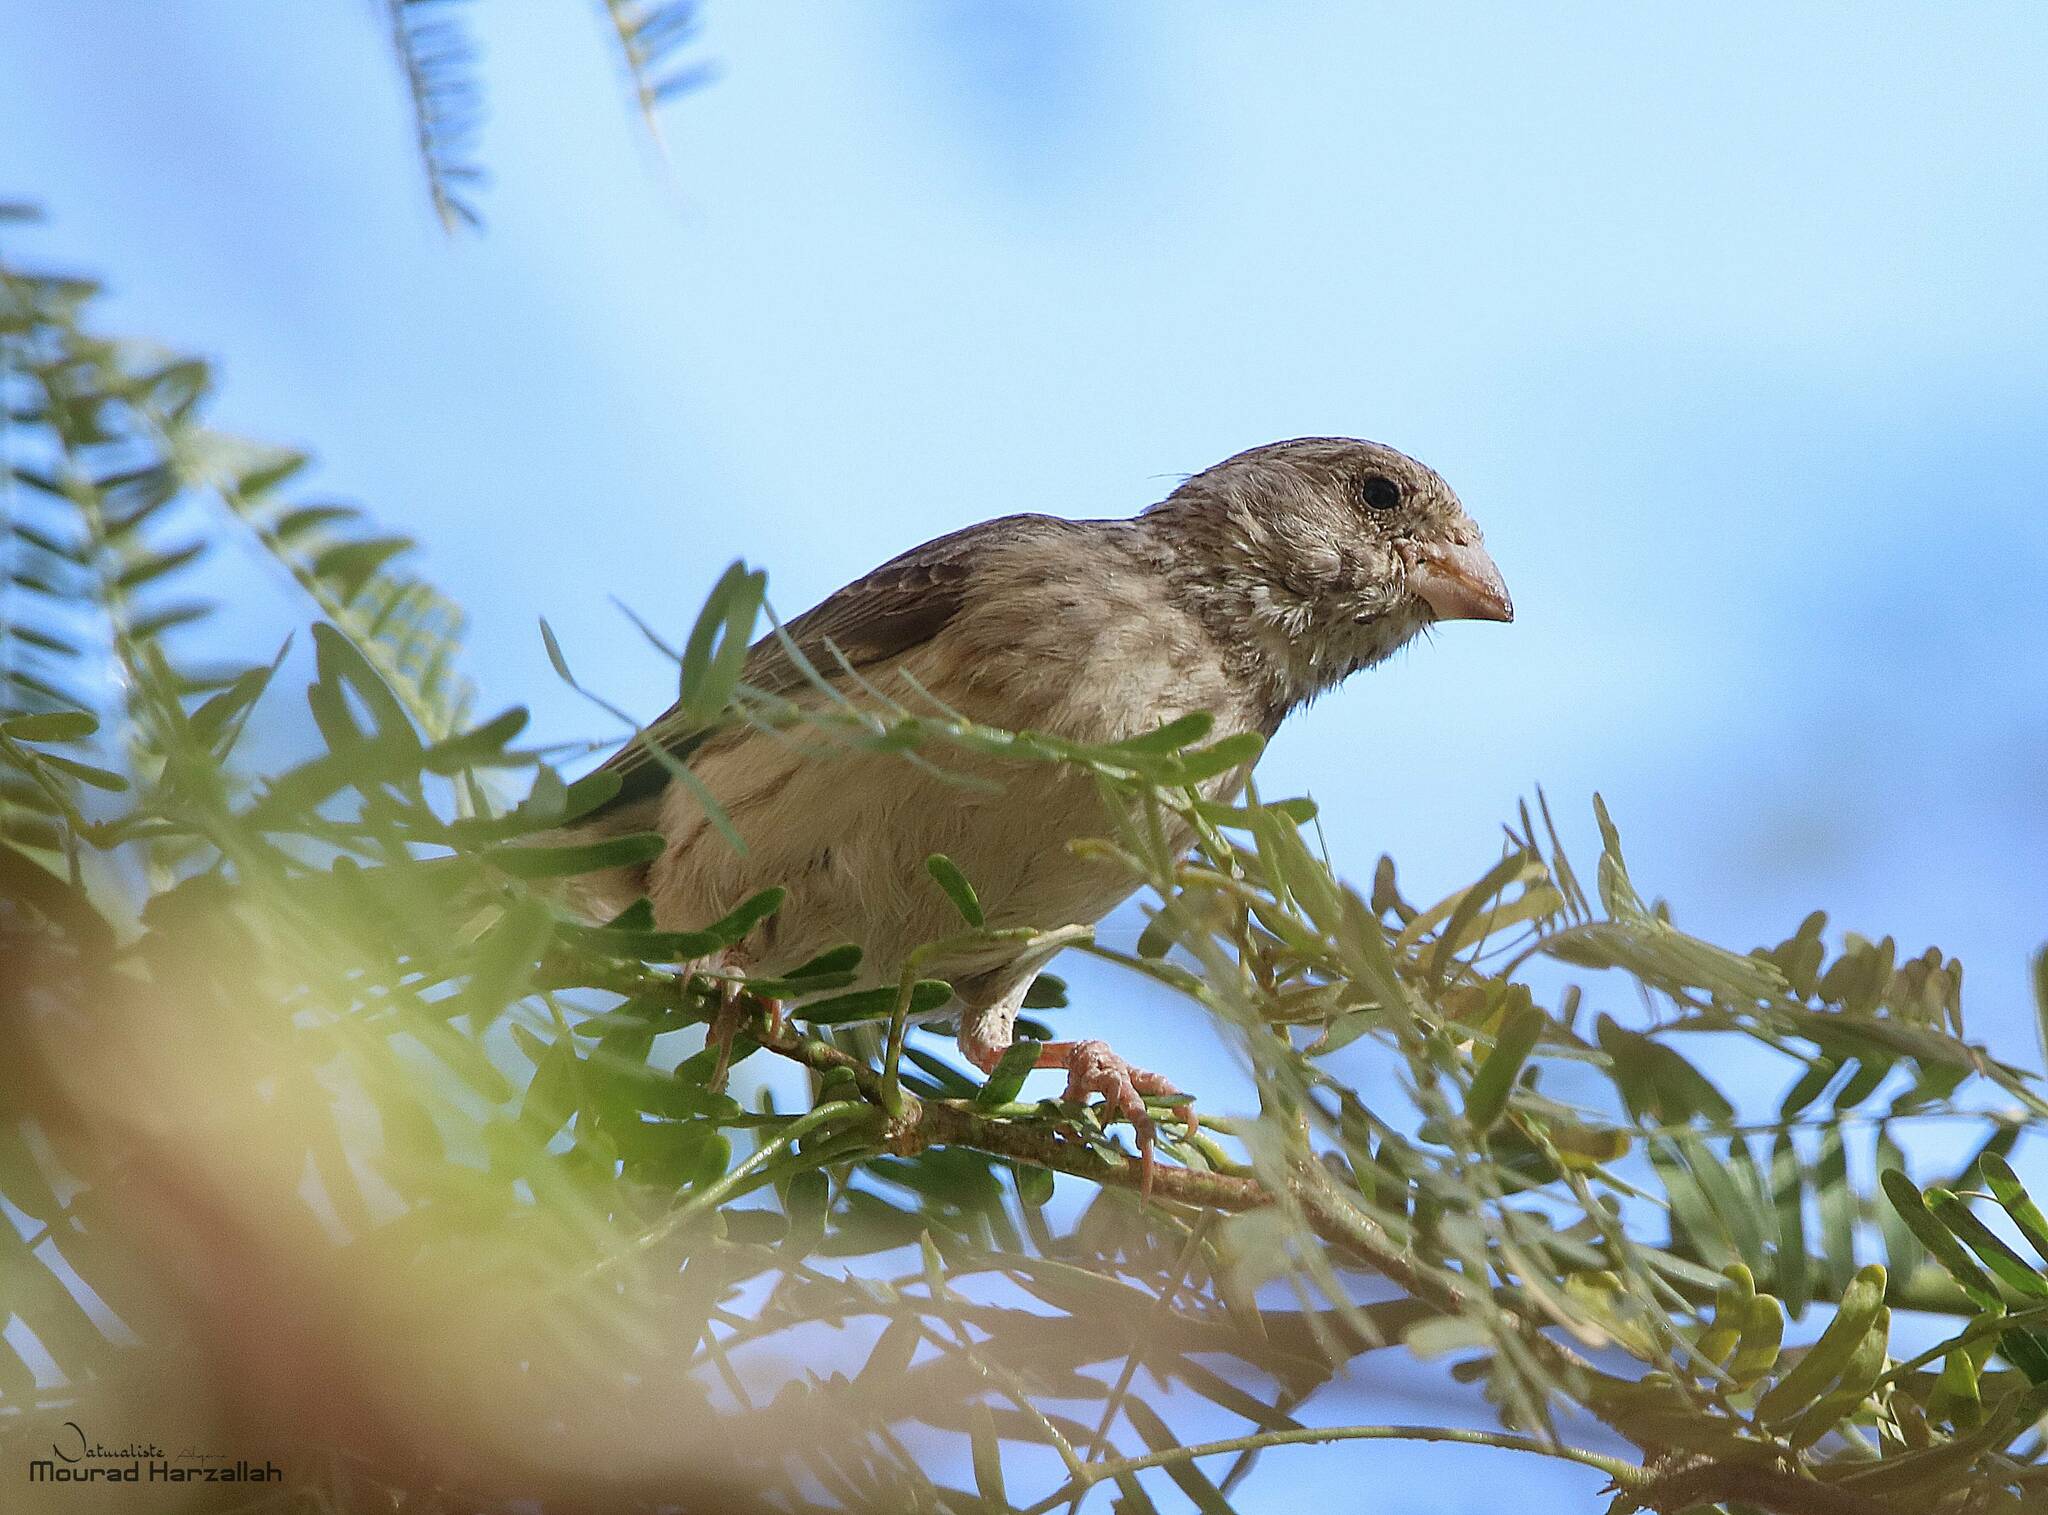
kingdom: Animalia
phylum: Chordata
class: Aves
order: Passeriformes
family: Fringillidae
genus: Crithagra
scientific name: Crithagra leucopygia
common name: White-rumped seedeater
